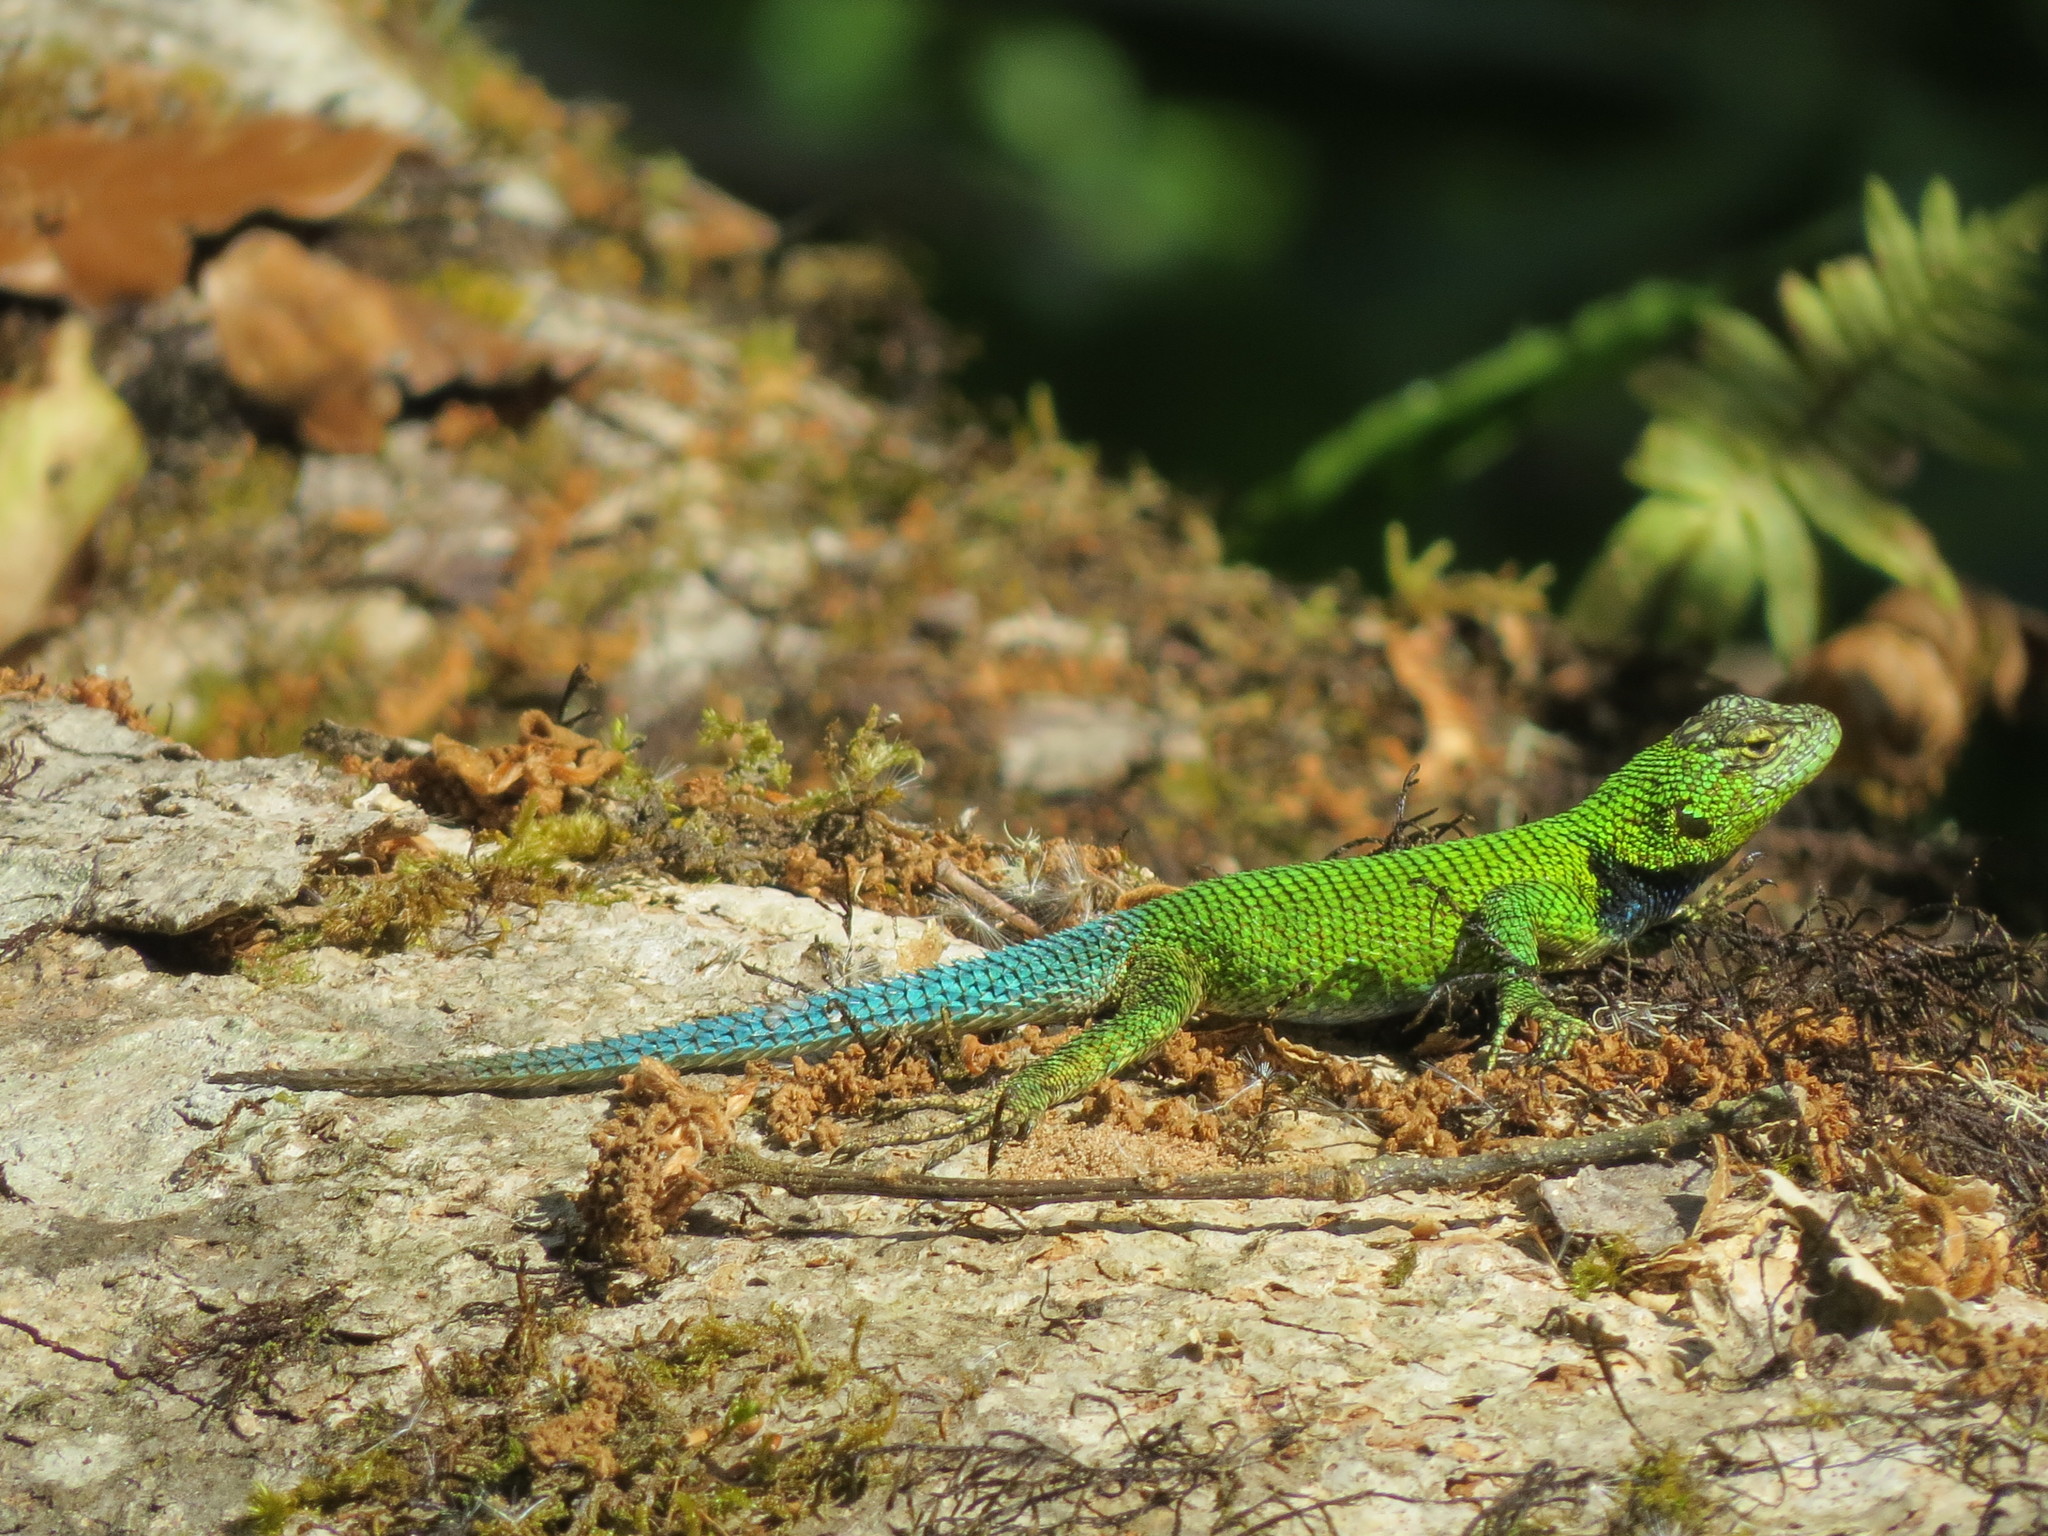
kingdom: Animalia
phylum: Chordata
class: Squamata
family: Phrynosomatidae
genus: Sceloporus
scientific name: Sceloporus taeniocnemis
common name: Guatemalan emerald spiny lizard
